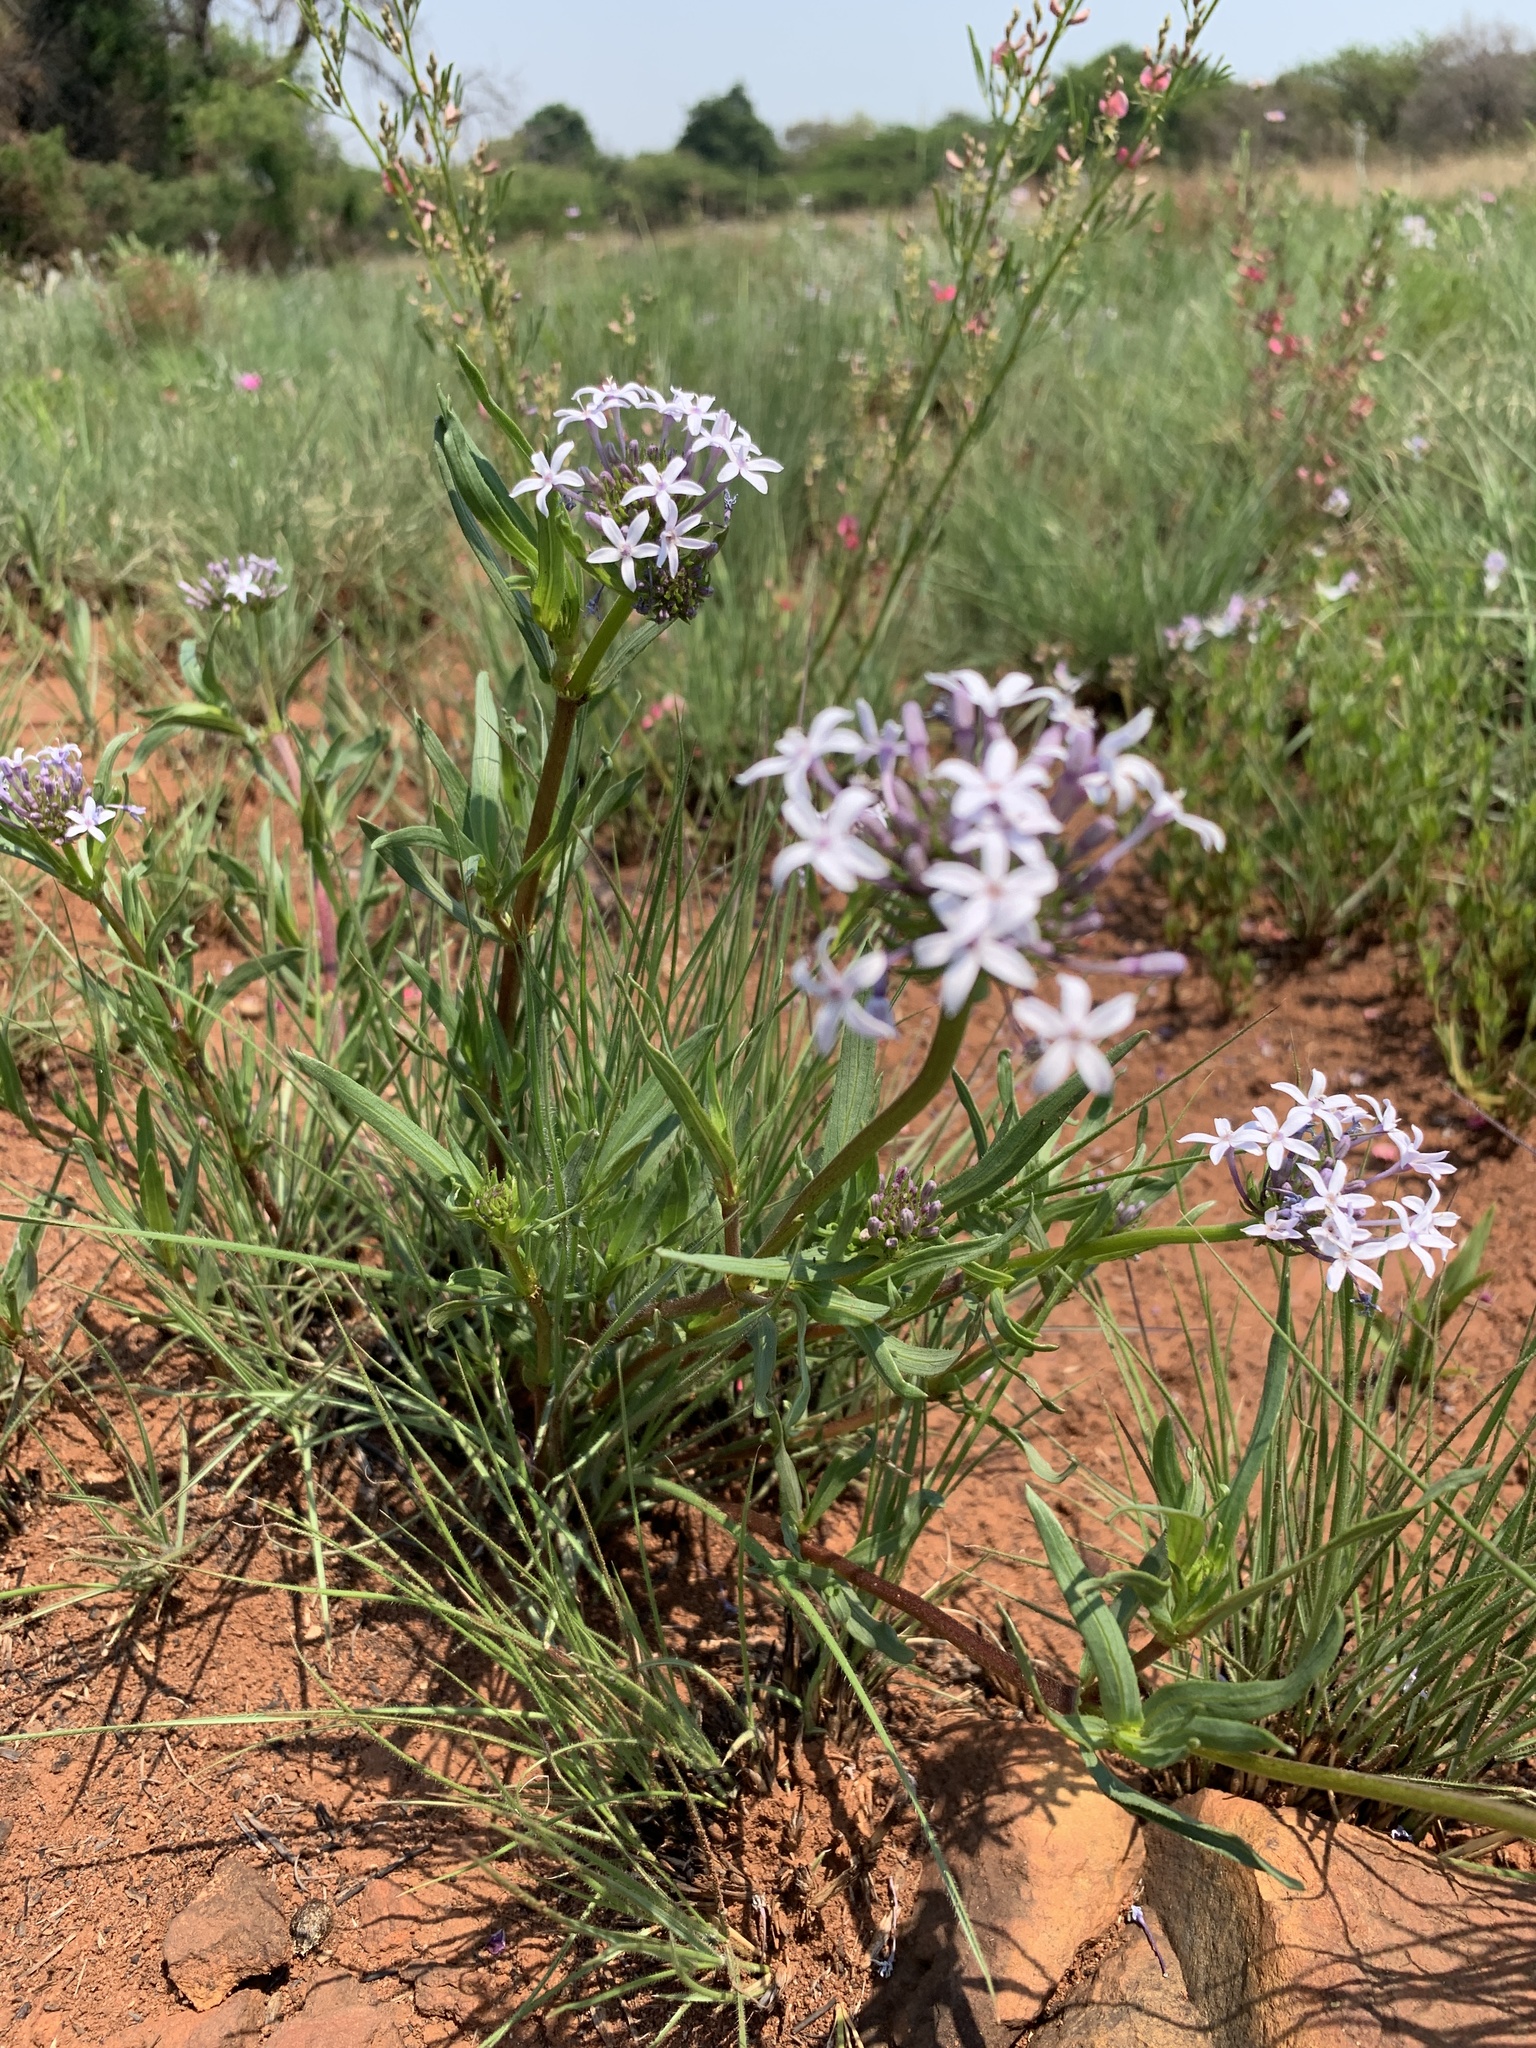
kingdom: Plantae
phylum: Tracheophyta
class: Magnoliopsida
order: Gentianales
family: Rubiaceae
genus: Pentanisia
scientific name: Pentanisia angustifolia
